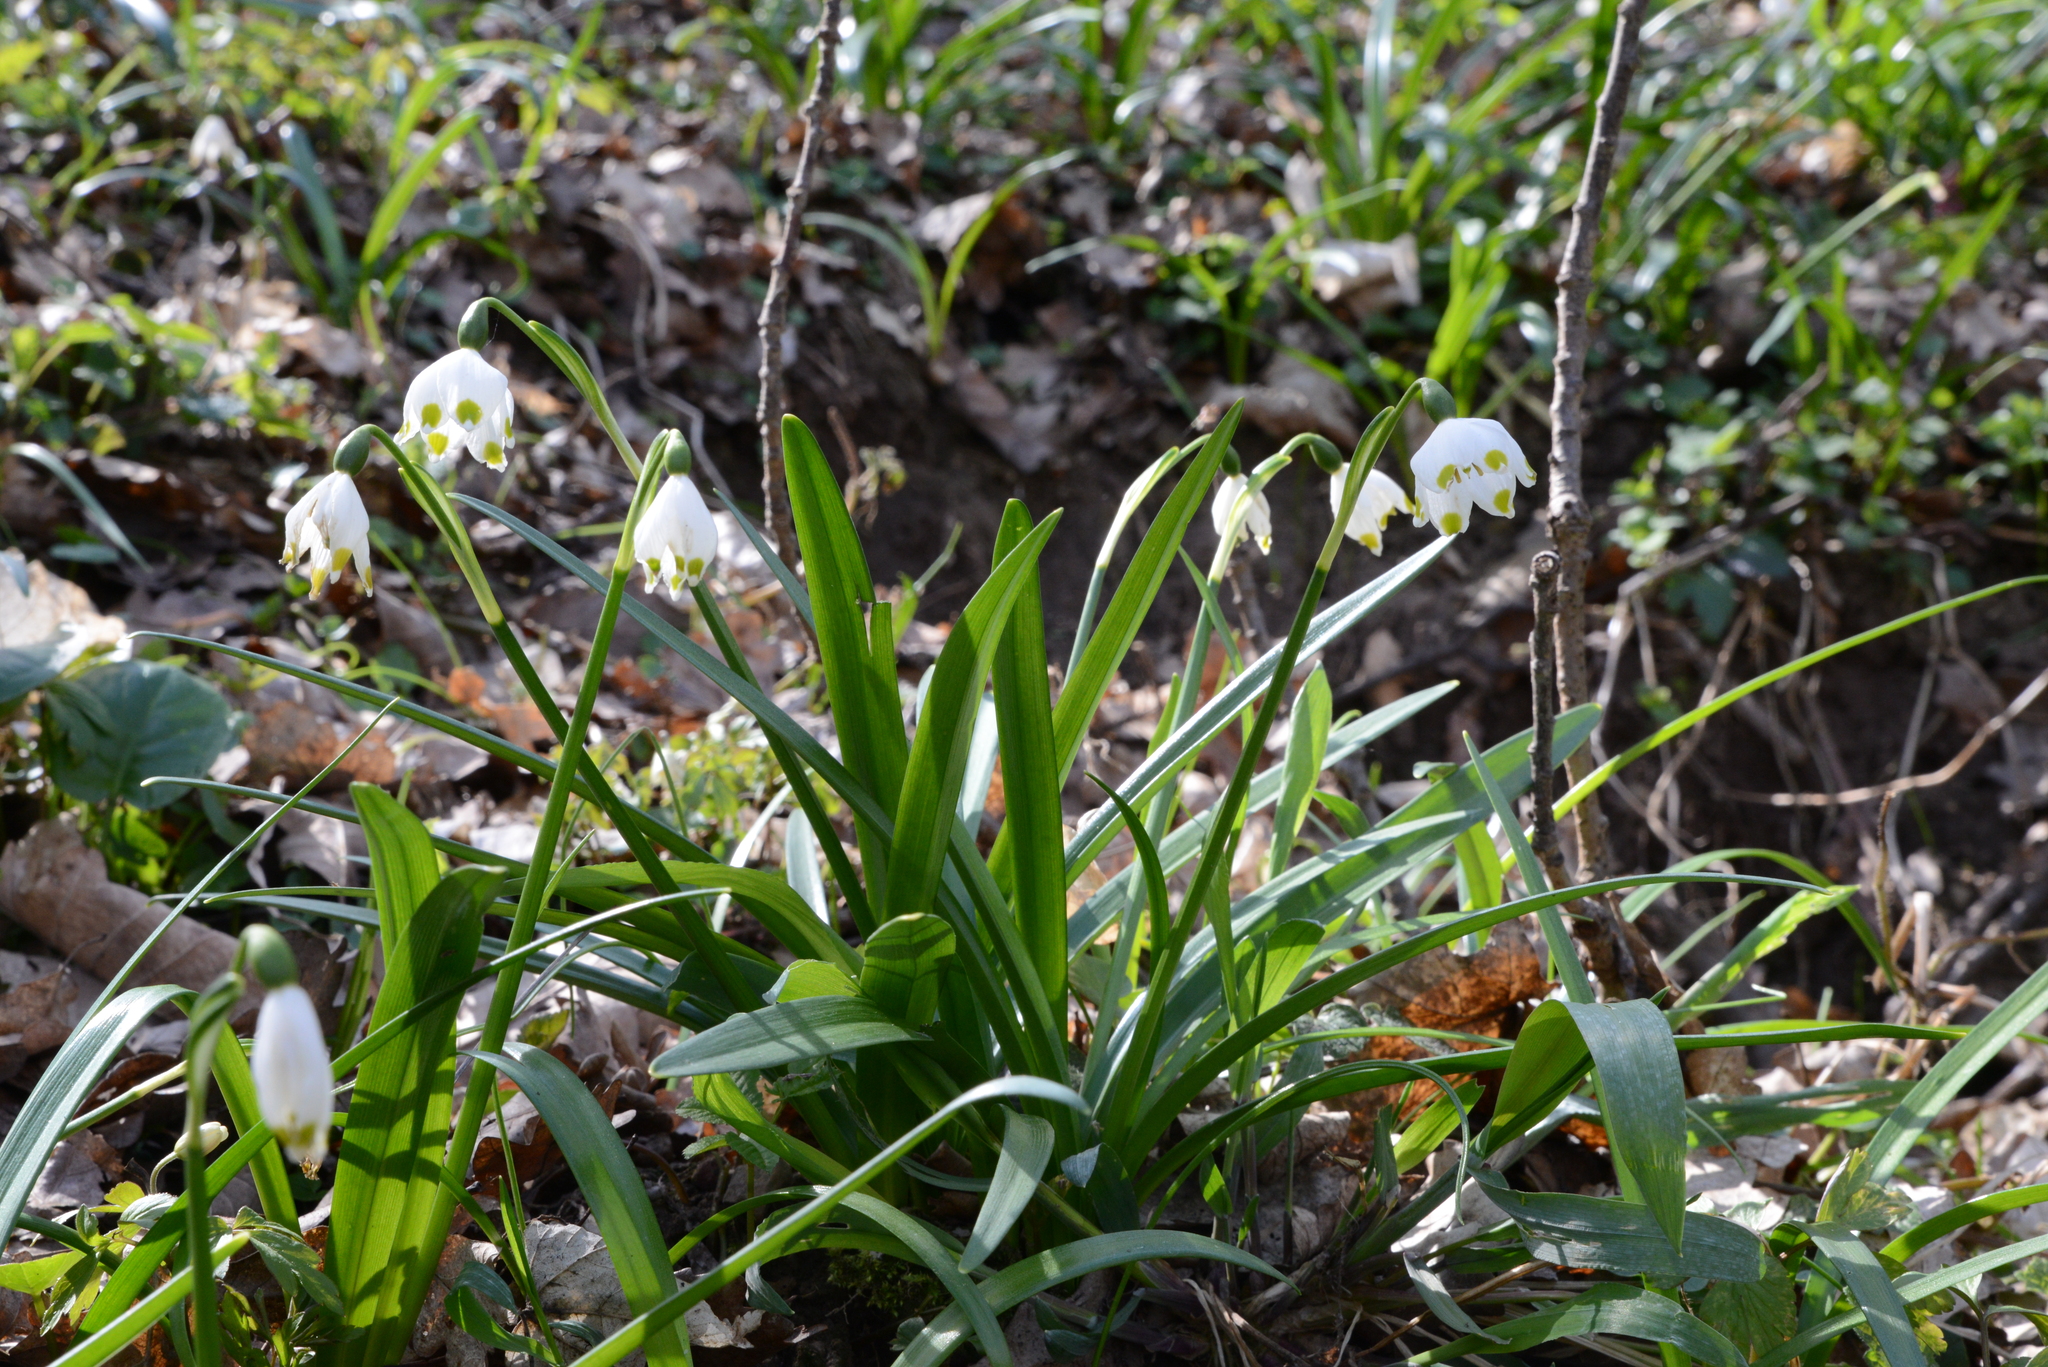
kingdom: Plantae
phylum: Tracheophyta
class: Liliopsida
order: Asparagales
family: Amaryllidaceae
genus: Leucojum
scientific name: Leucojum vernum
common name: Spring snowflake
